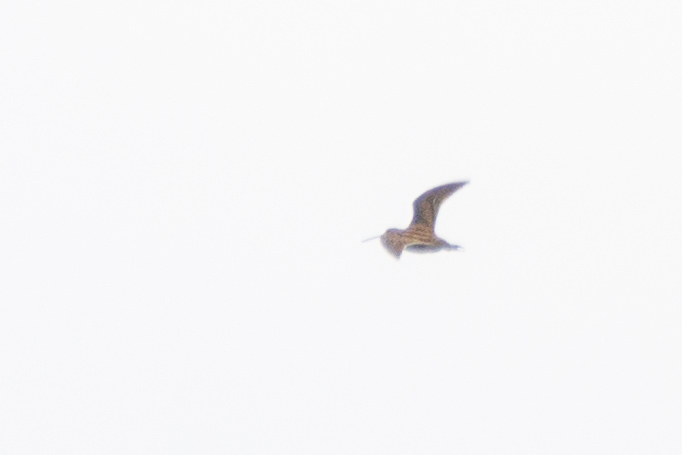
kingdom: Animalia
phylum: Chordata
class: Aves
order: Charadriiformes
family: Scolopacidae
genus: Gallinago
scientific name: Gallinago gallinago
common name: Common snipe
